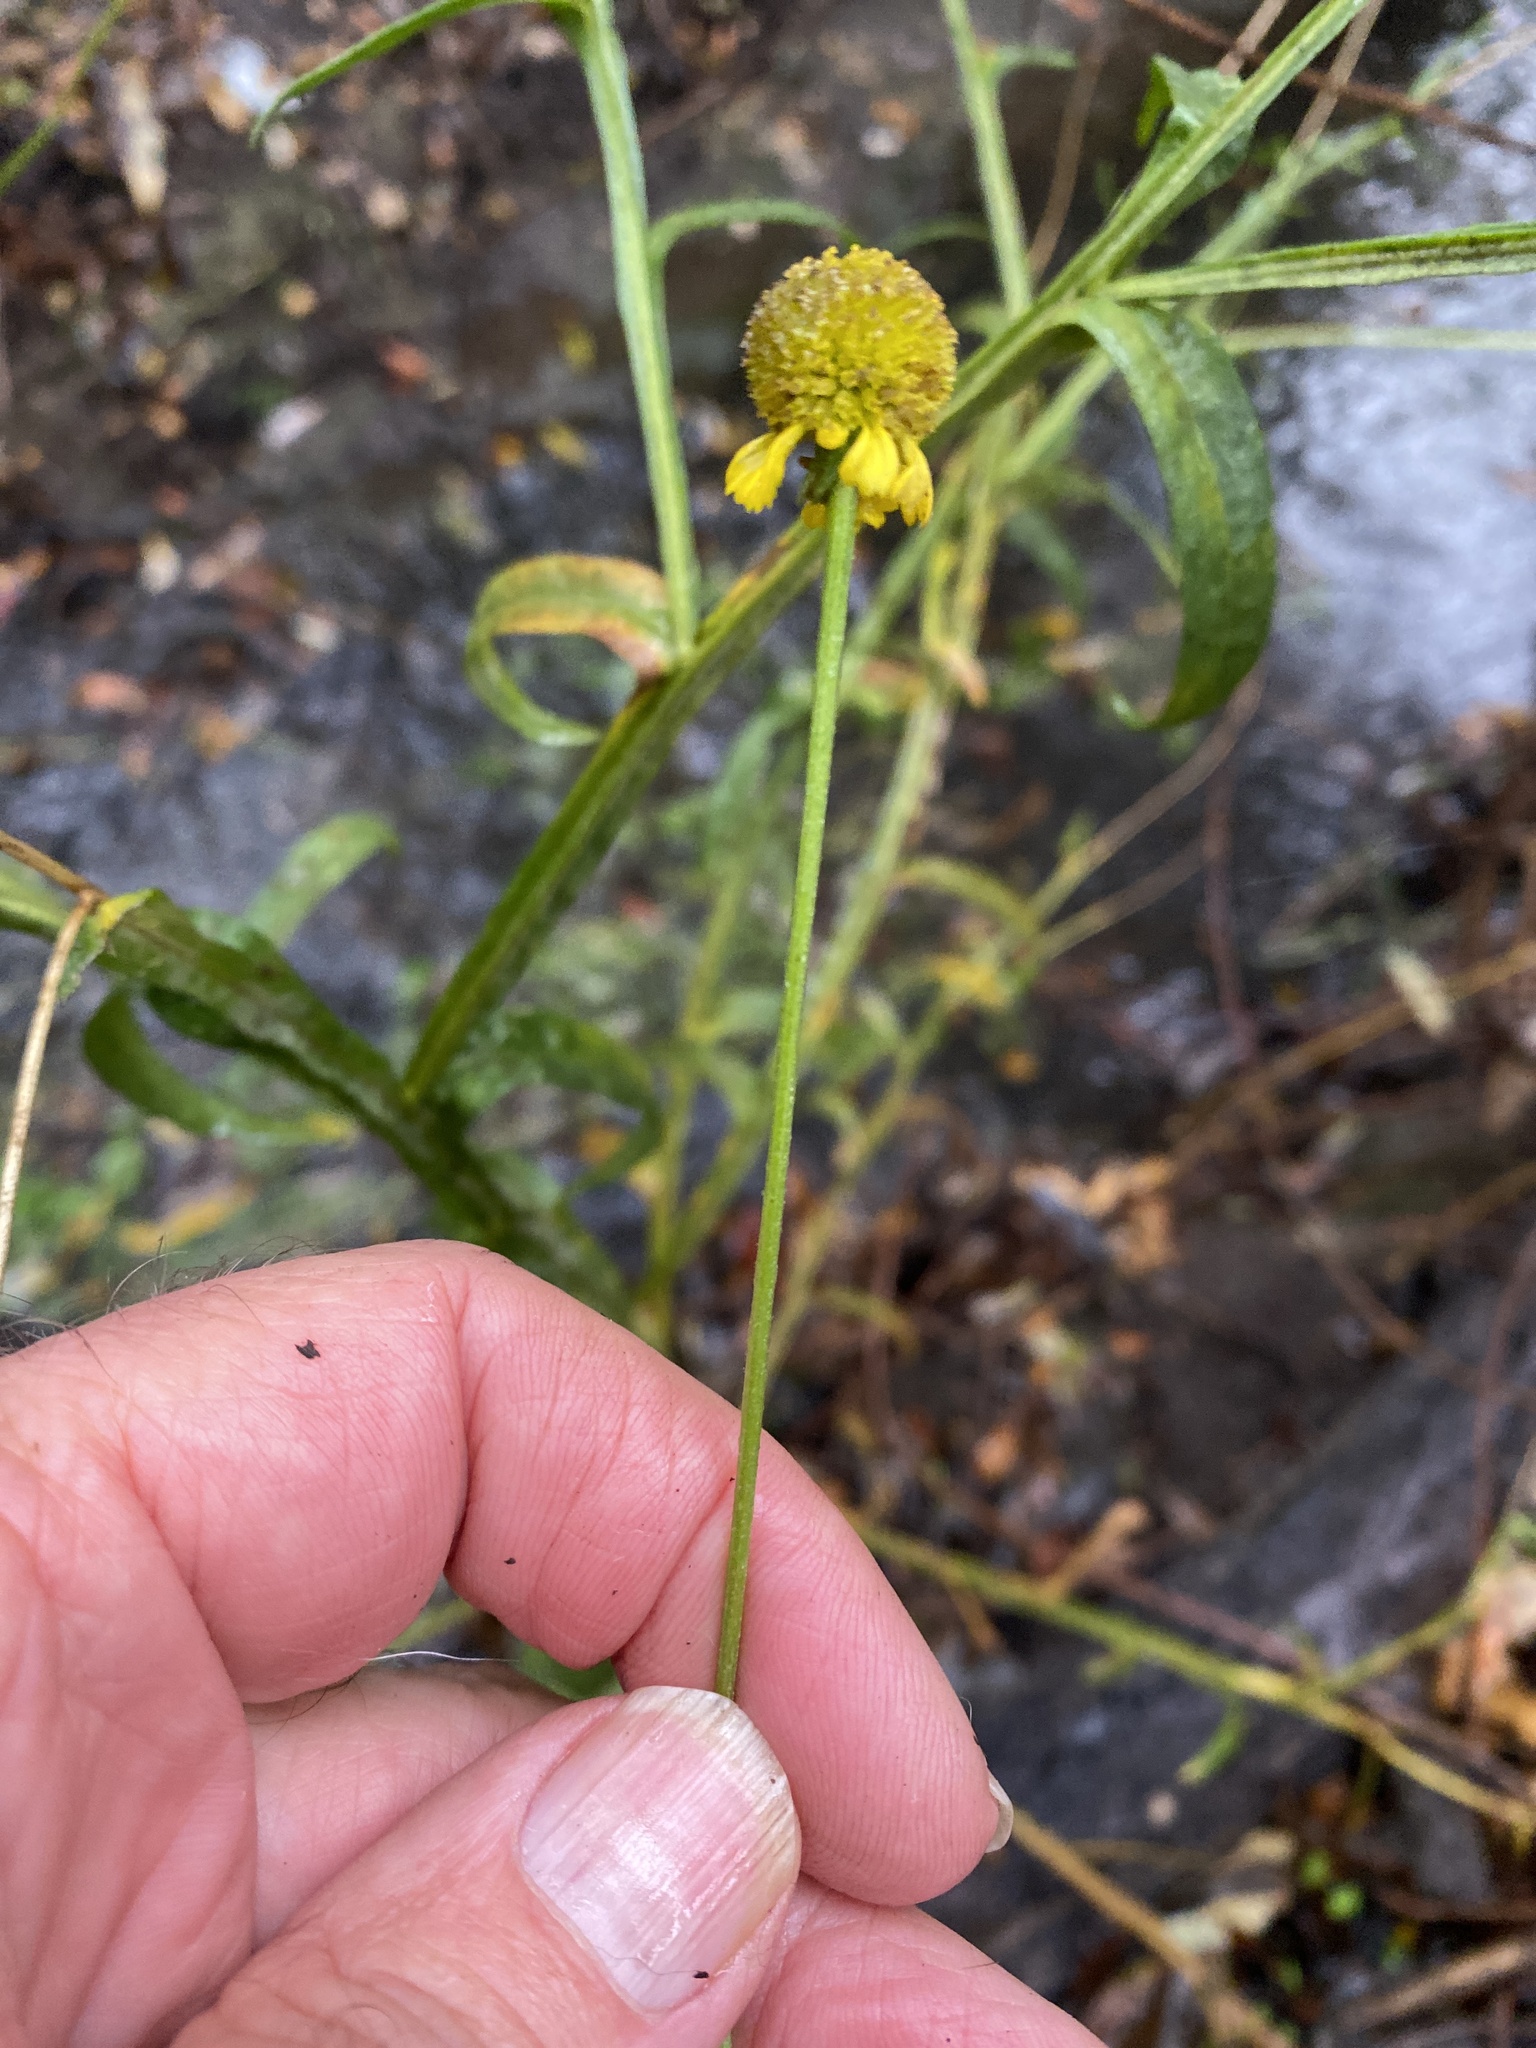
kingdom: Plantae
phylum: Tracheophyta
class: Magnoliopsida
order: Asterales
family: Asteraceae
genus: Helenium
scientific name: Helenium puberulum
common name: Sneezewort
